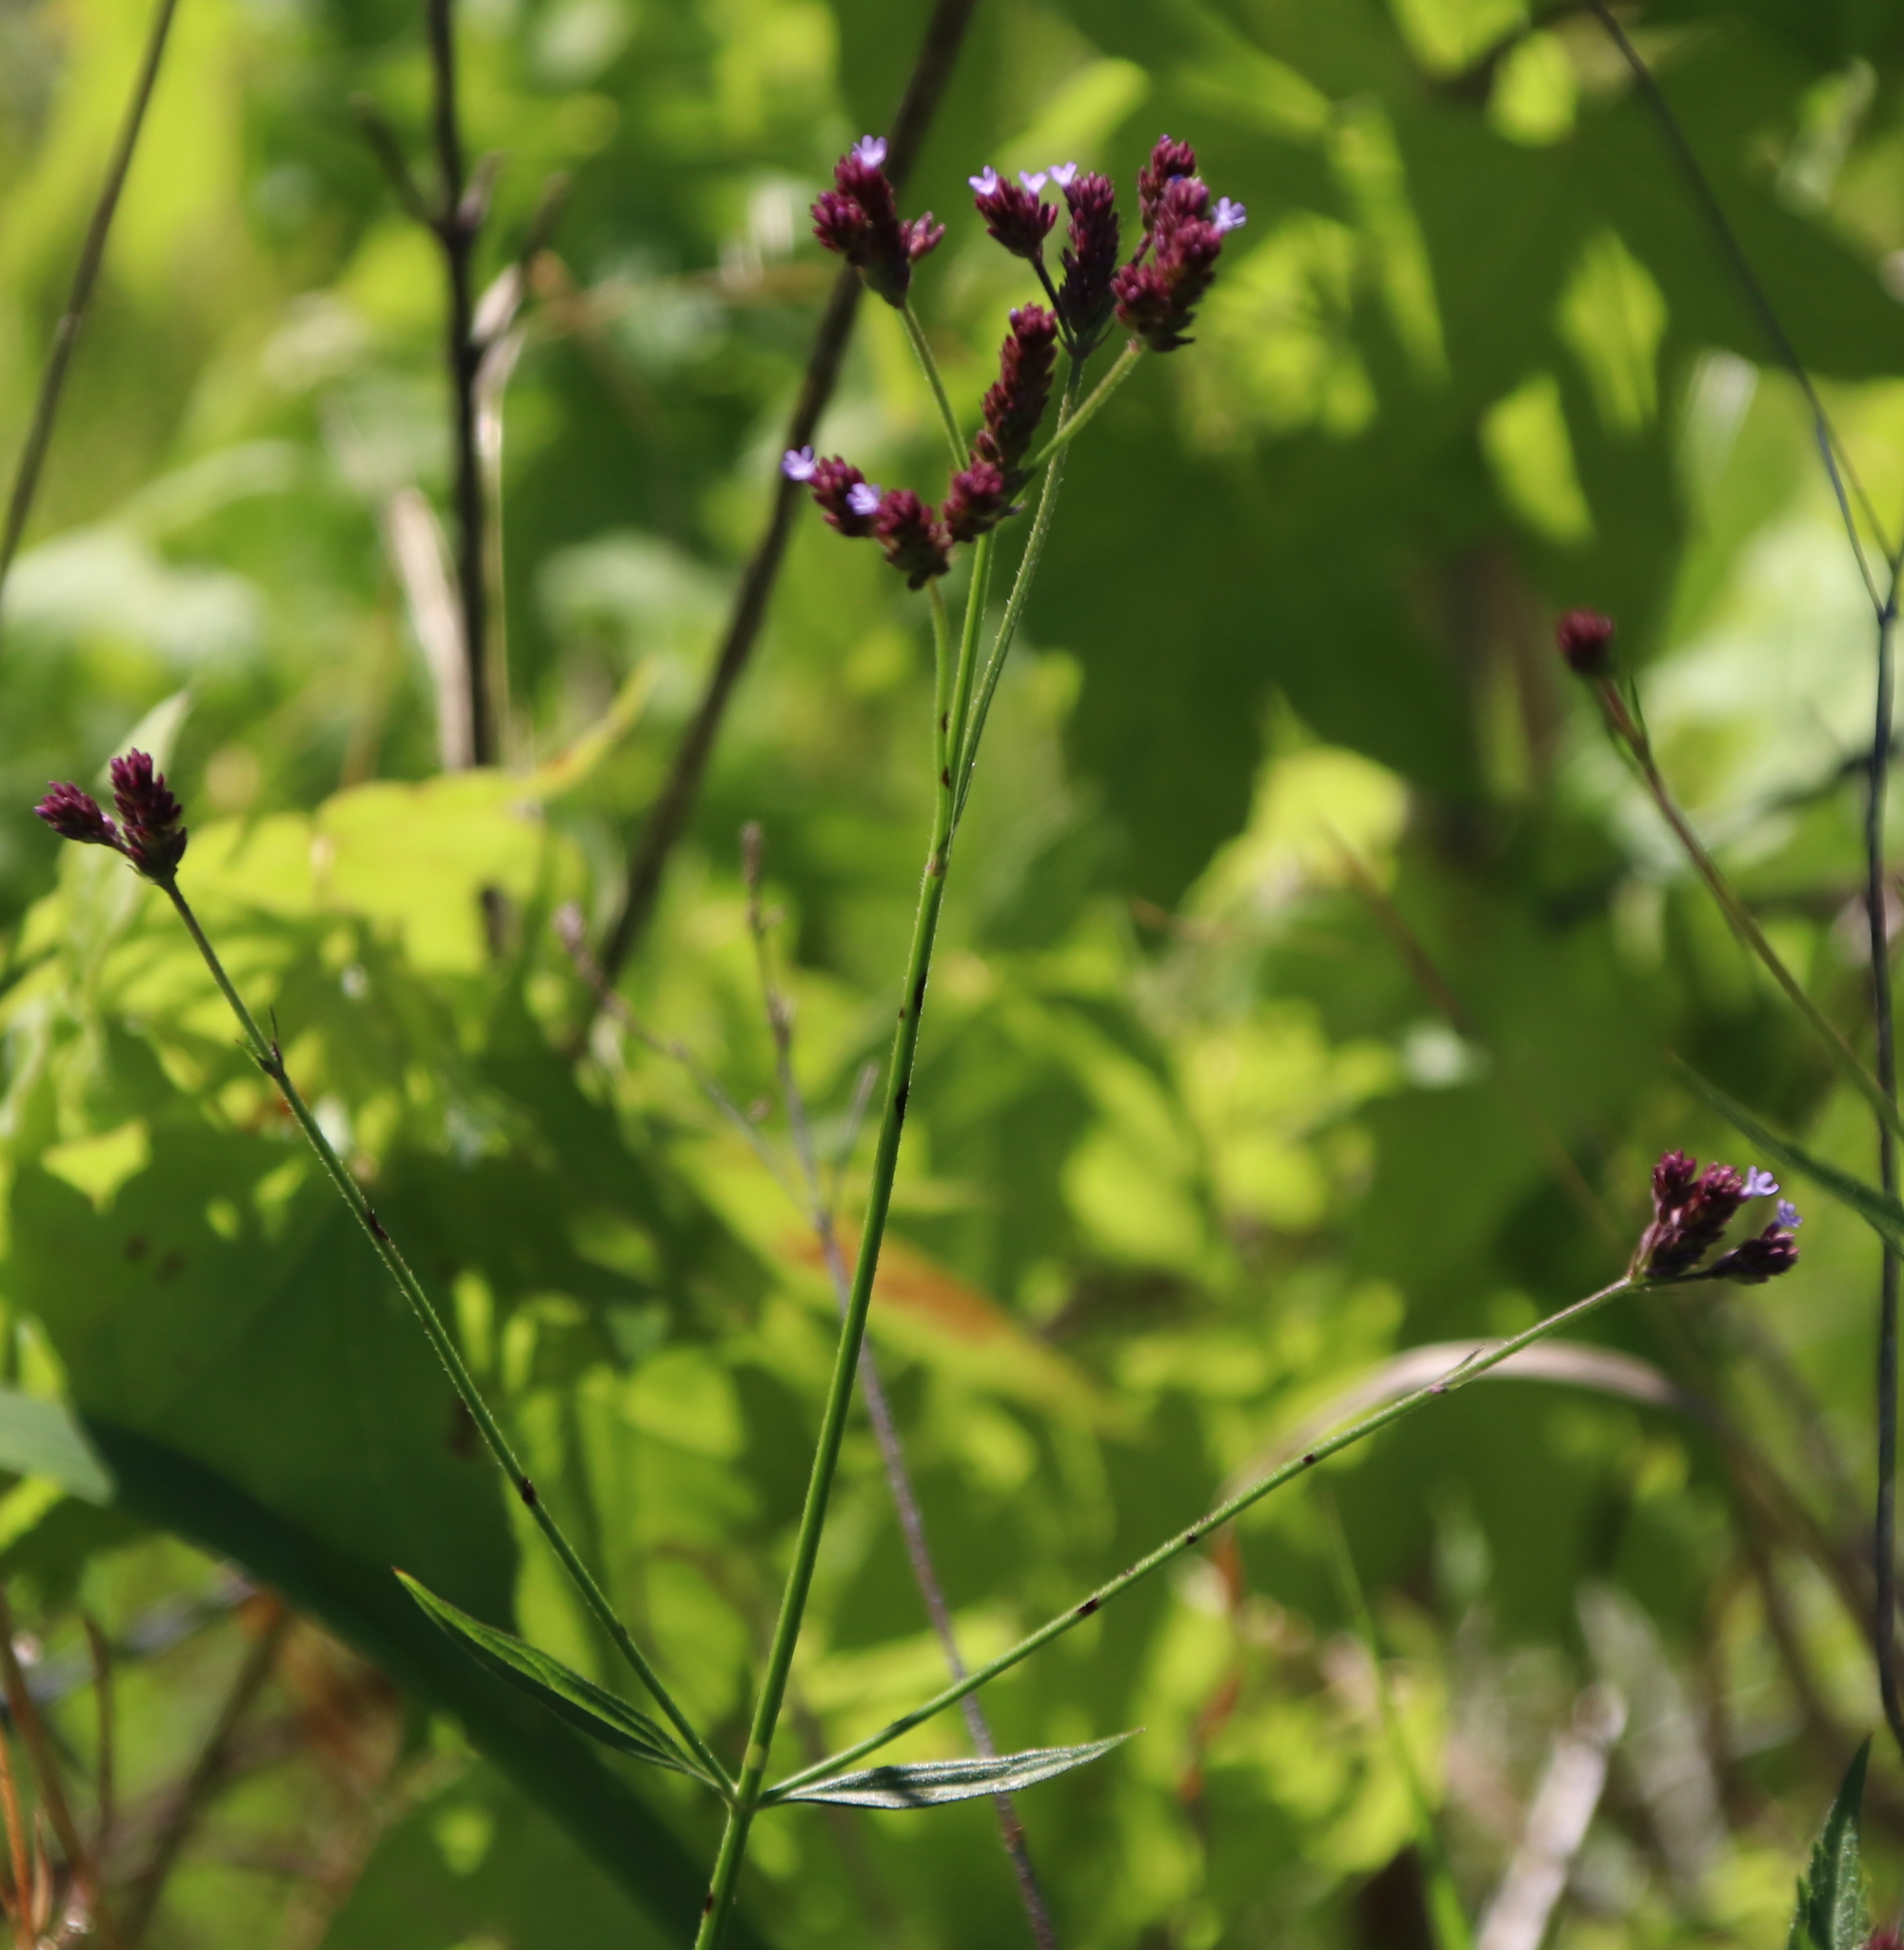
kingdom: Plantae
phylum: Tracheophyta
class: Magnoliopsida
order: Lamiales
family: Verbenaceae
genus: Verbena
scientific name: Verbena brasiliensis
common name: Brazilian vervain
